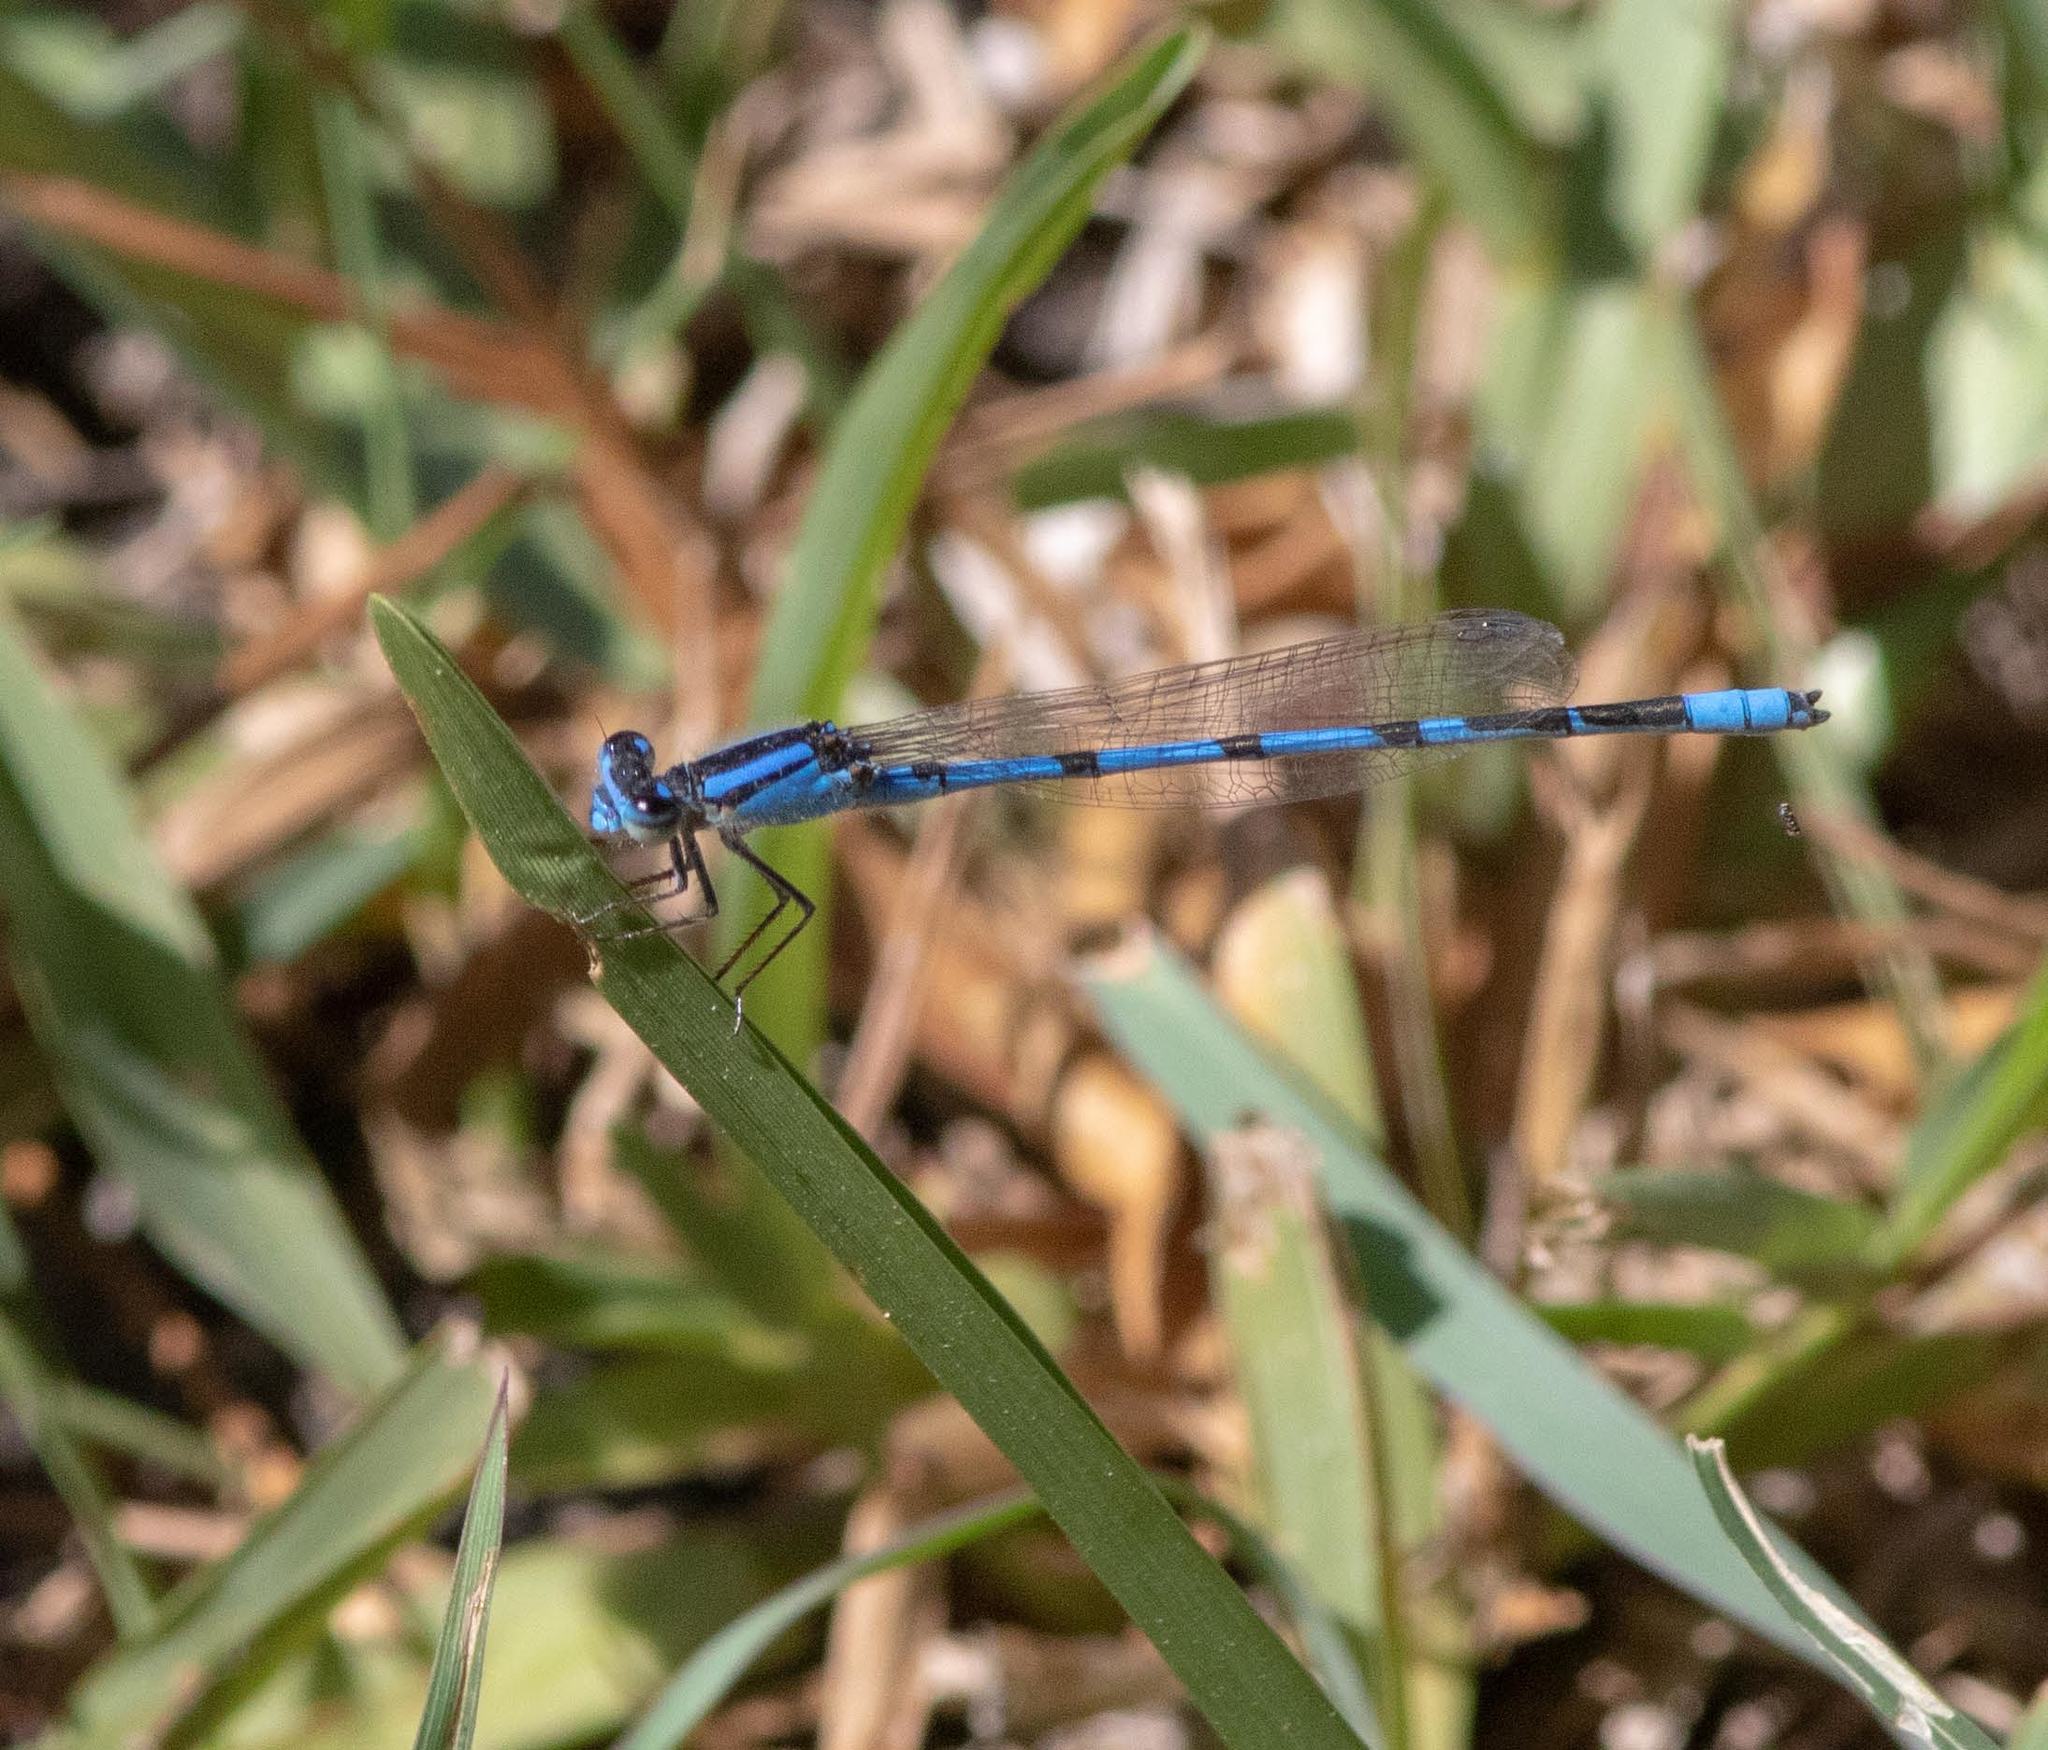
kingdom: Animalia
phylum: Arthropoda
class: Insecta
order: Odonata
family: Coenagrionidae
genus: Enallagma
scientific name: Enallagma civile
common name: Damselfly
